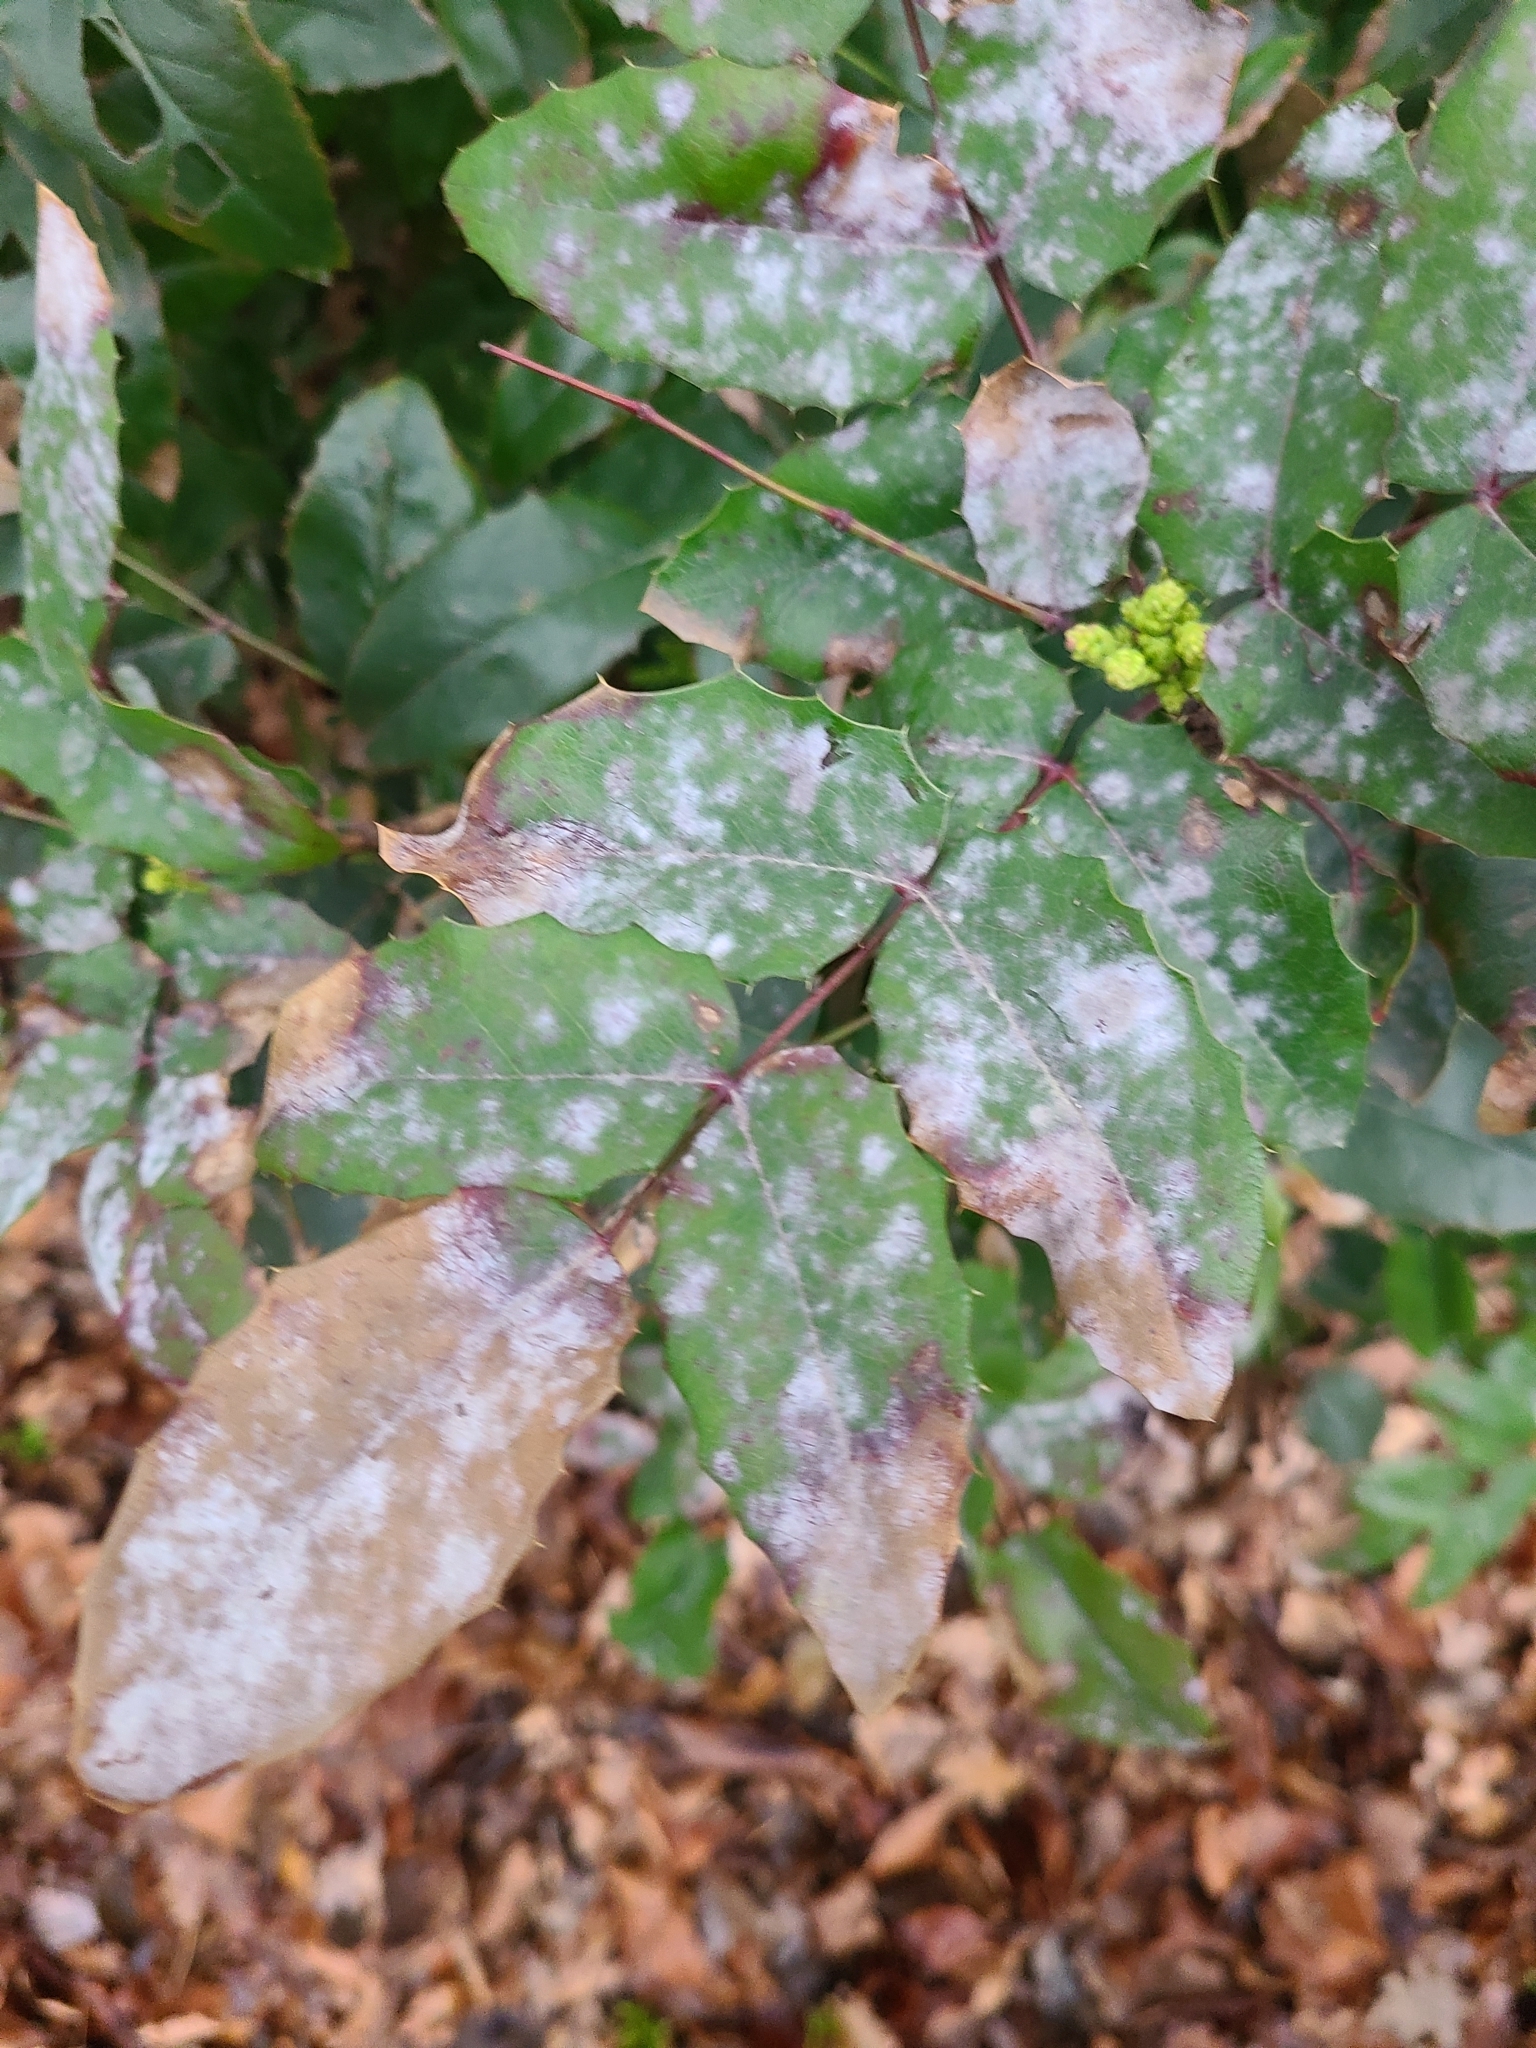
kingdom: Fungi
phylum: Ascomycota
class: Leotiomycetes
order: Helotiales
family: Erysiphaceae
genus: Erysiphe
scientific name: Erysiphe berberidis
